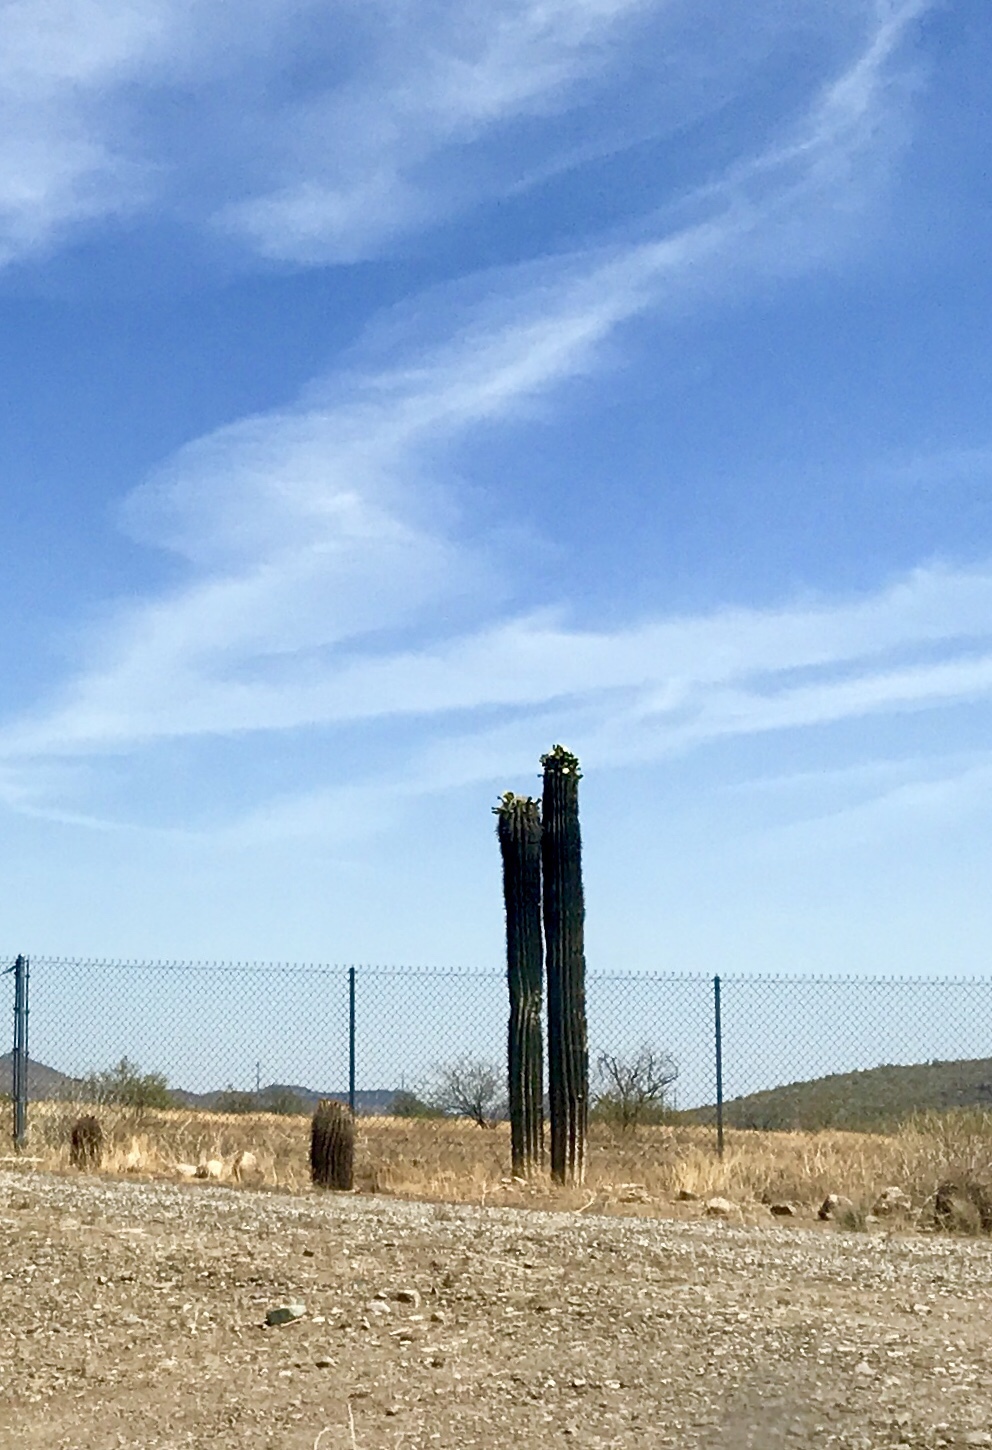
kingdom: Plantae
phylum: Tracheophyta
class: Magnoliopsida
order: Caryophyllales
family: Cactaceae
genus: Carnegiea
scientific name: Carnegiea gigantea
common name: Saguaro
